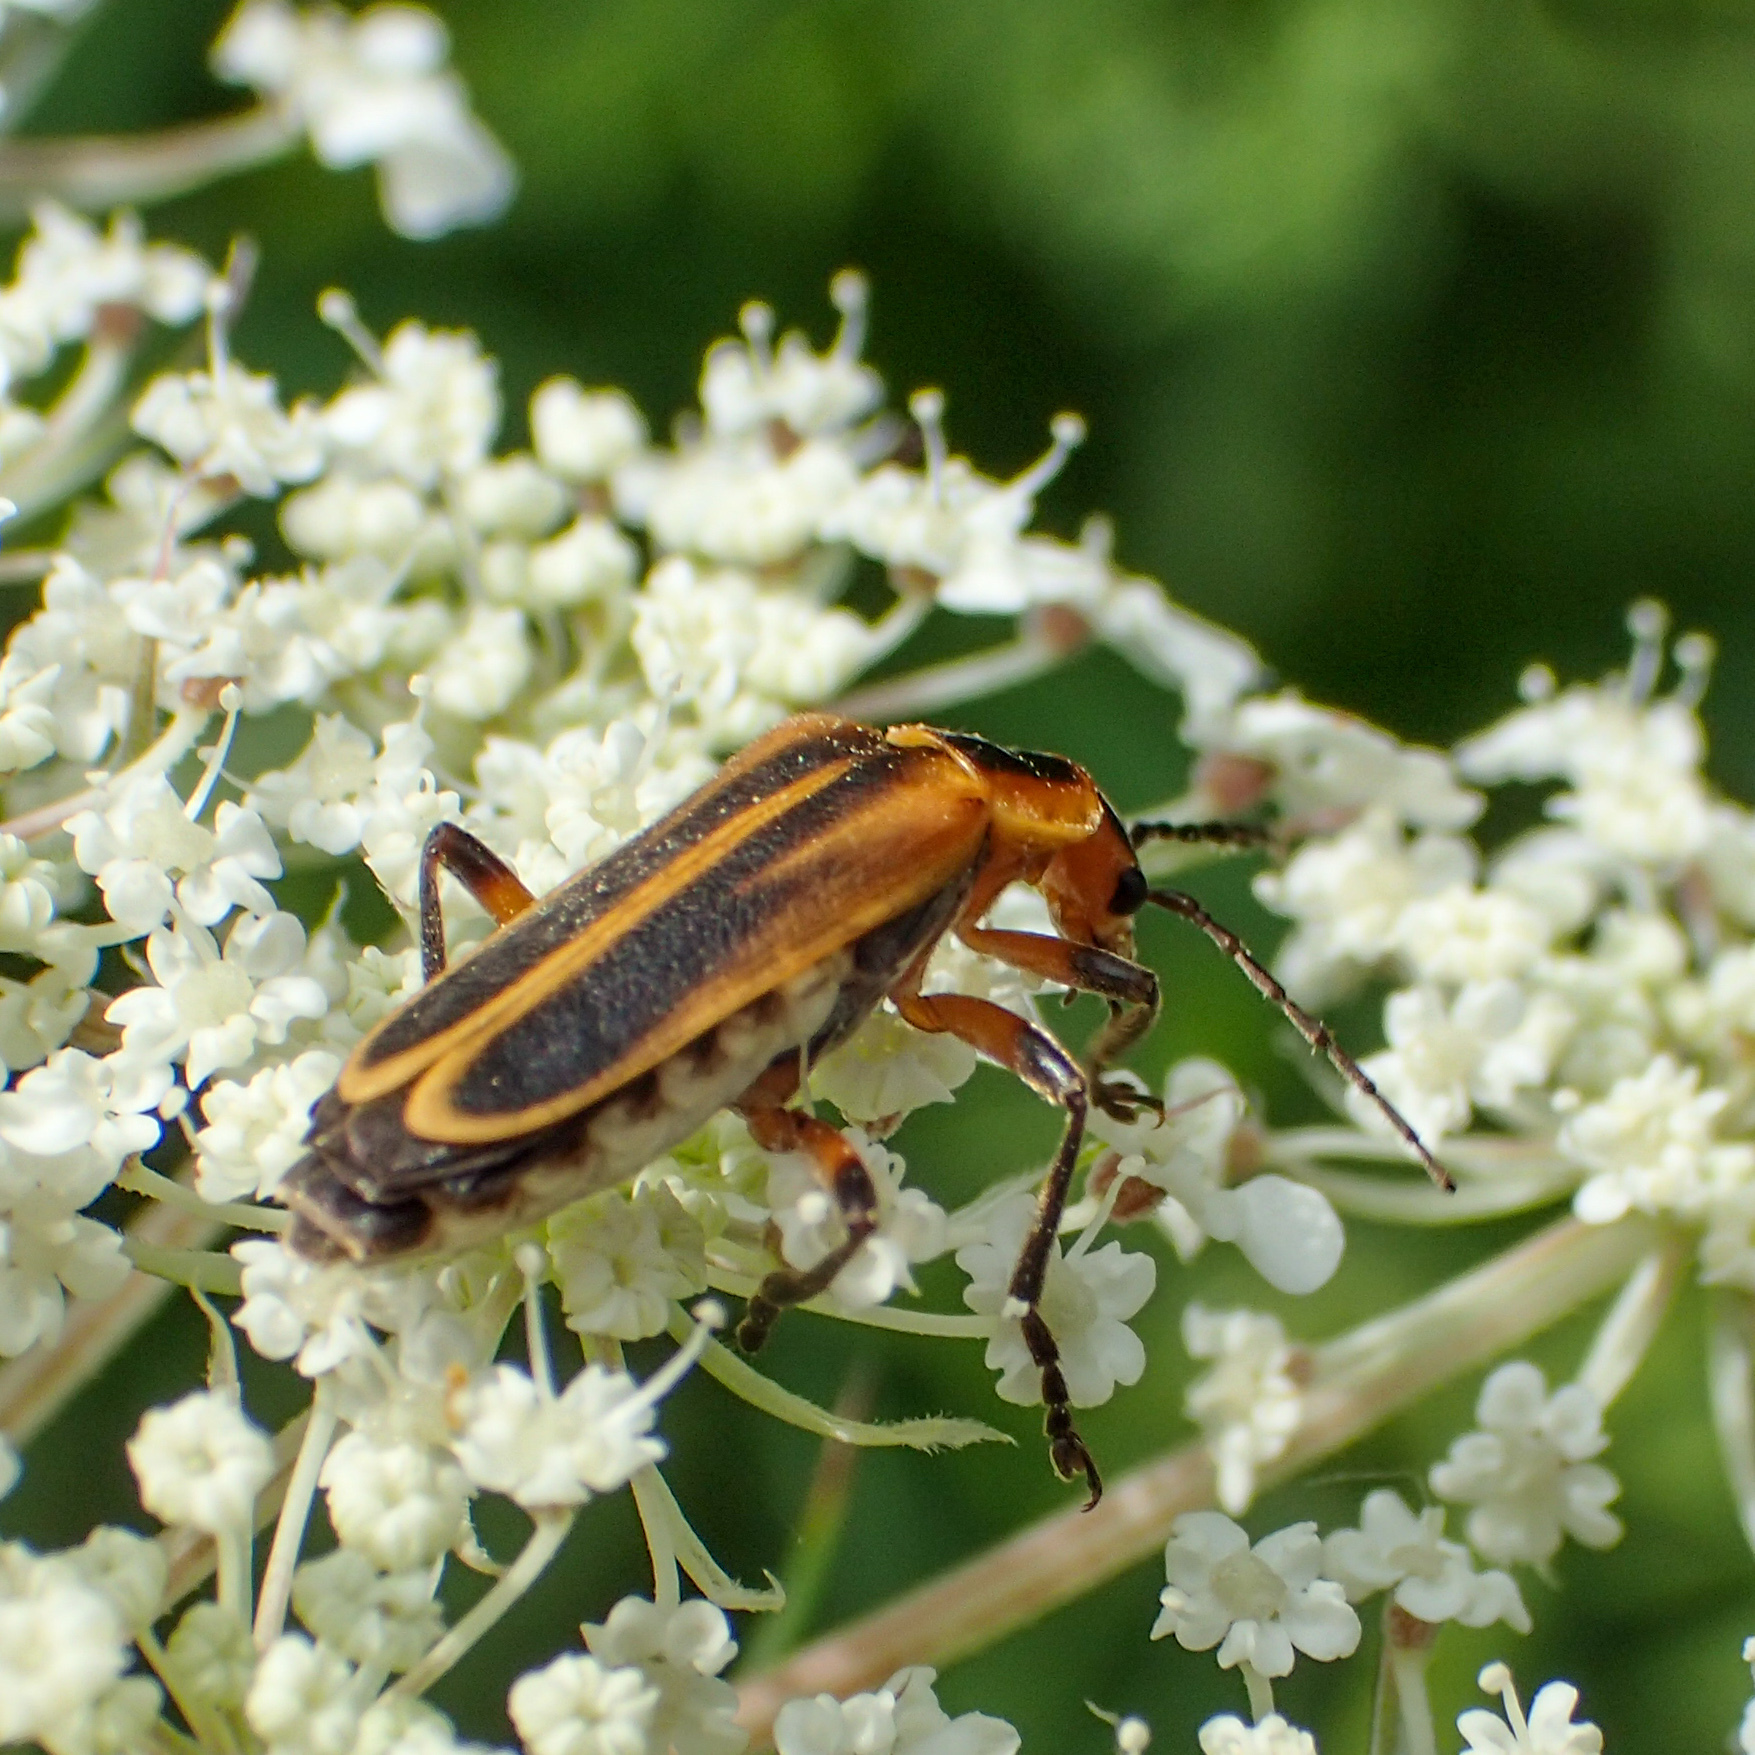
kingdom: Animalia
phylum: Arthropoda
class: Insecta
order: Coleoptera
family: Cantharidae
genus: Chauliognathus
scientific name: Chauliognathus marginatus
